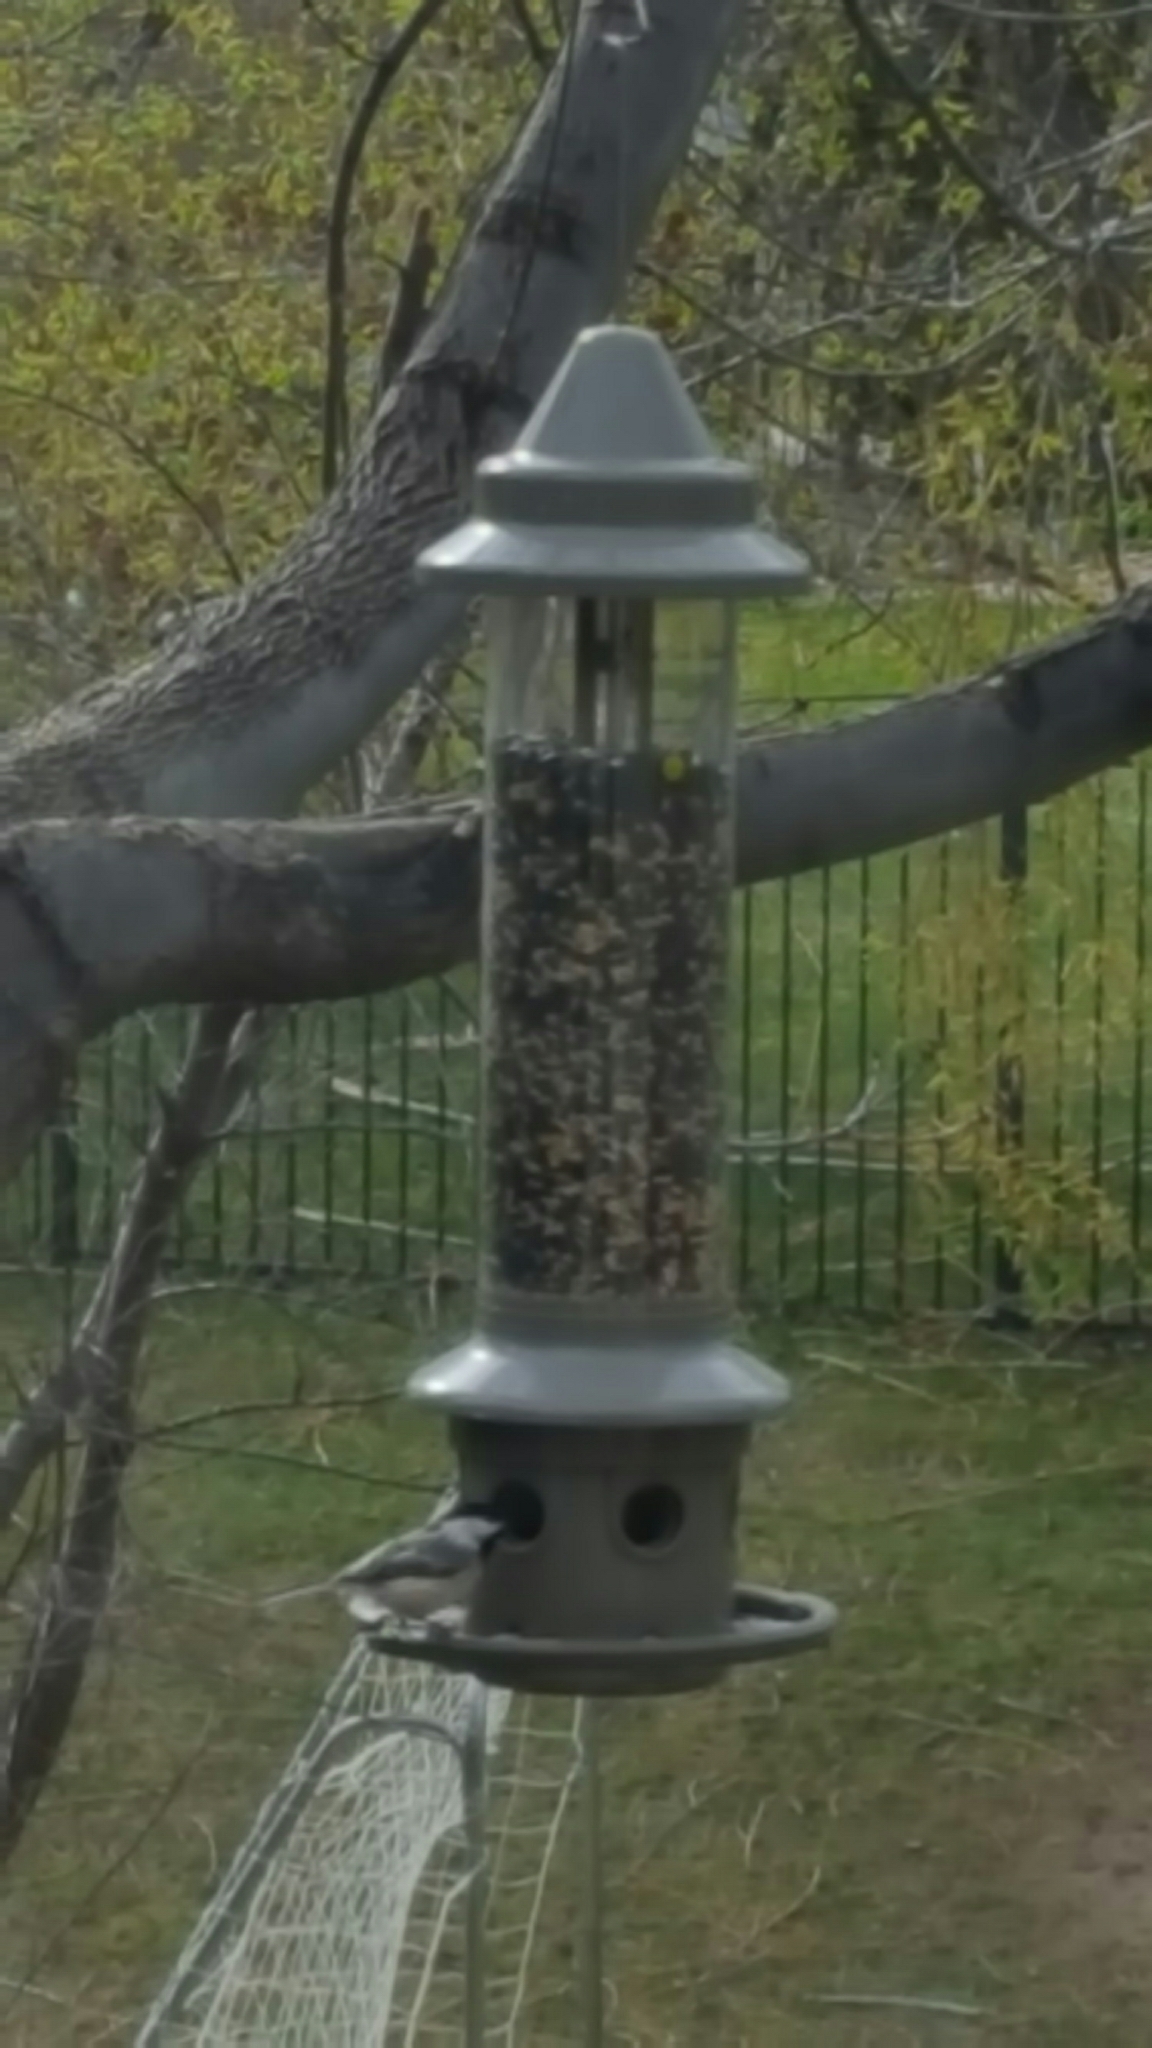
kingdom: Animalia
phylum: Chordata
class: Aves
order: Passeriformes
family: Paridae
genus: Poecile
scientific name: Poecile atricapillus
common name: Black-capped chickadee
